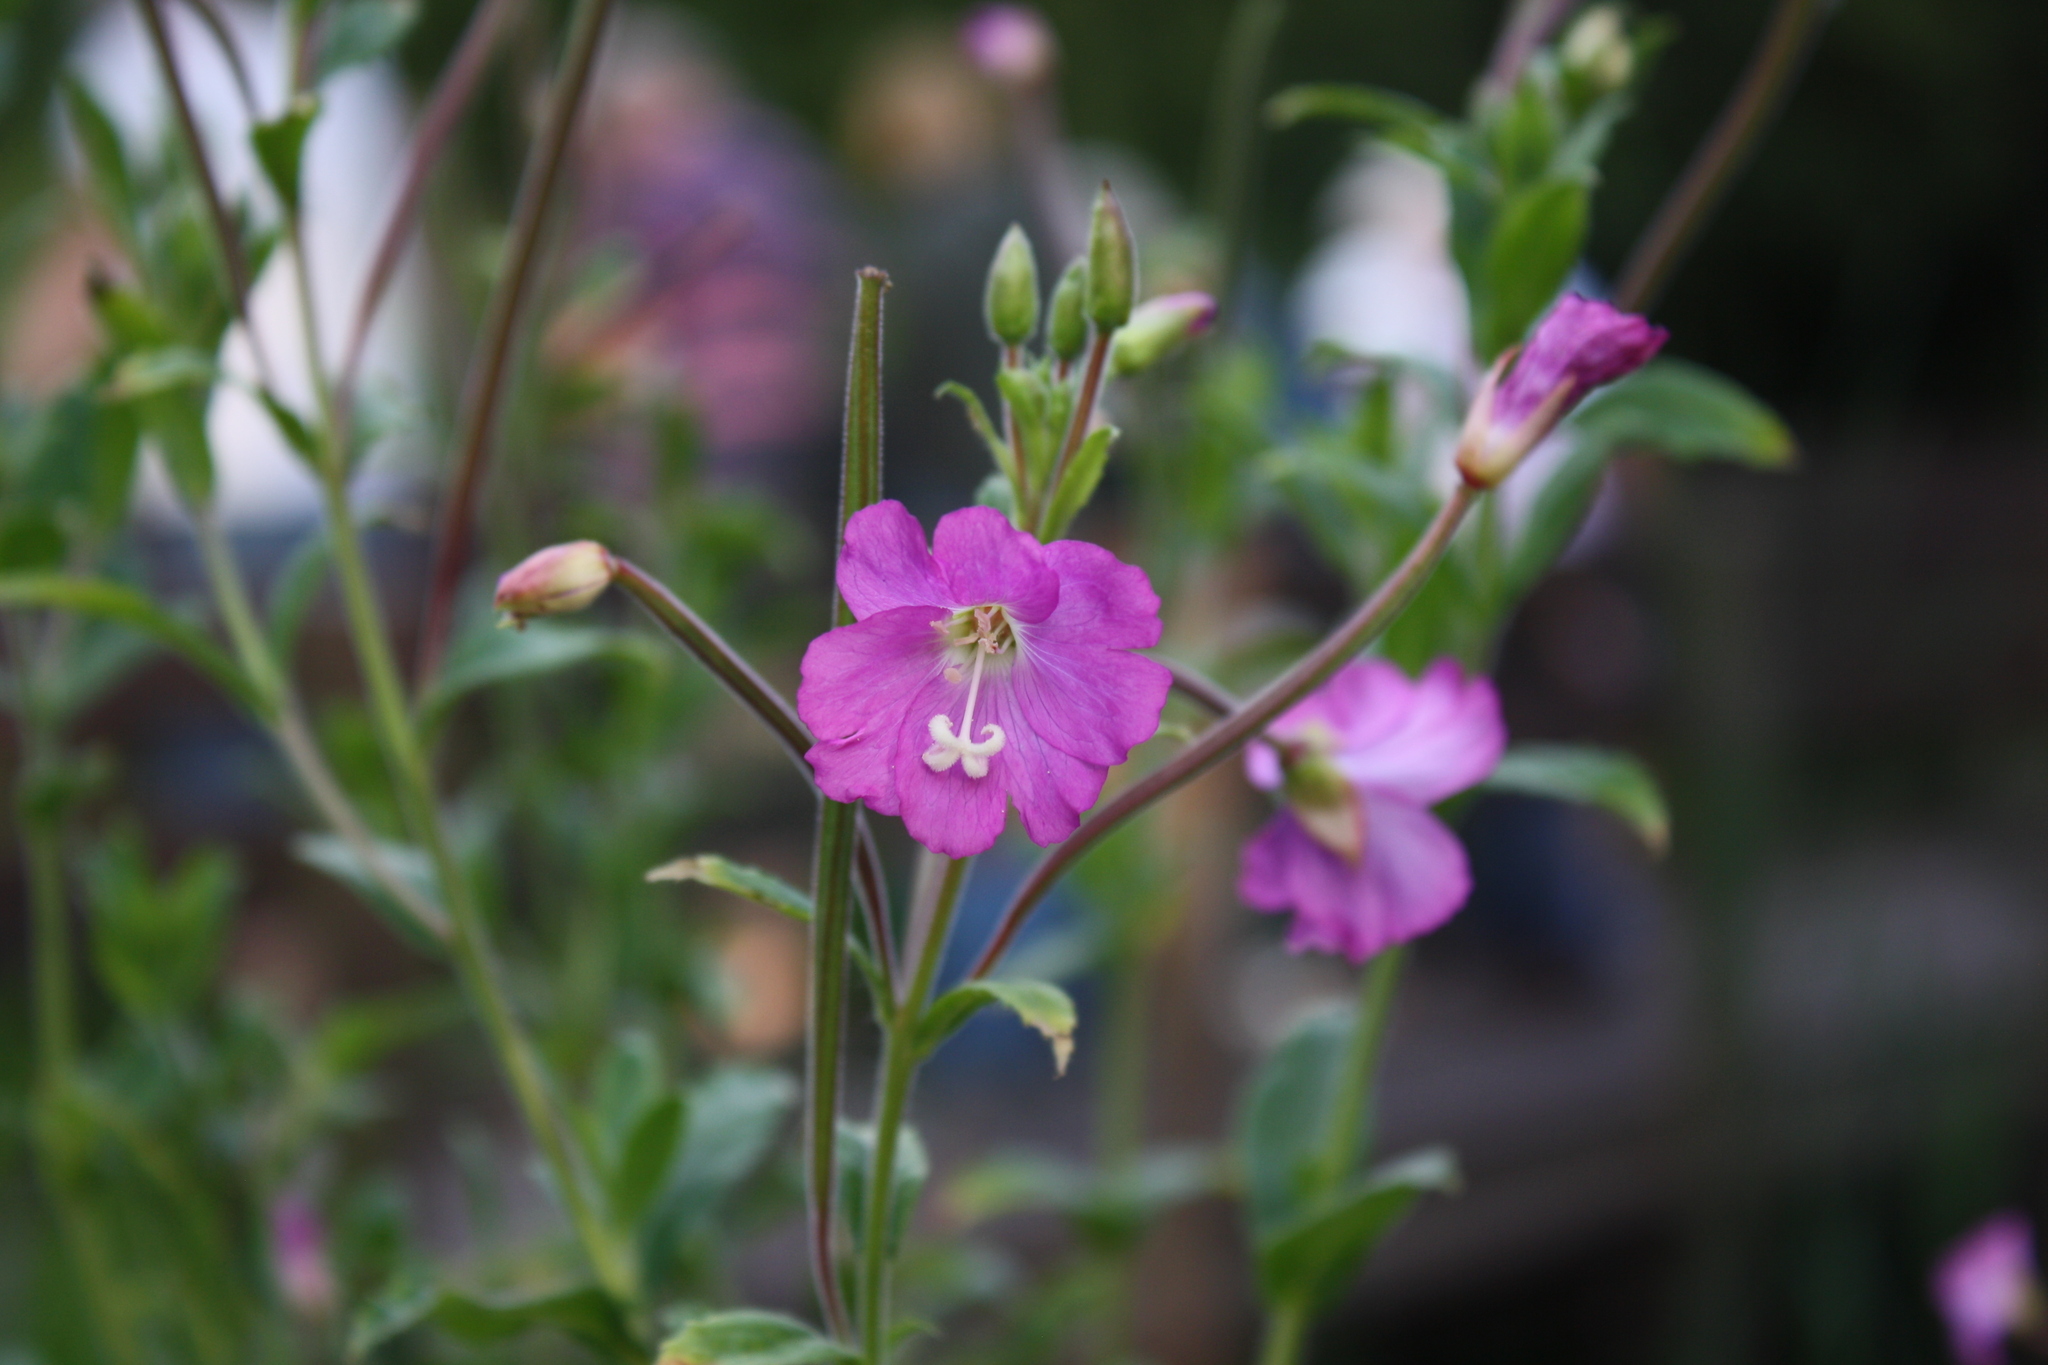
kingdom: Plantae
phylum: Tracheophyta
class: Magnoliopsida
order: Myrtales
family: Onagraceae
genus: Epilobium
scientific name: Epilobium hirsutum
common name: Great willowherb
